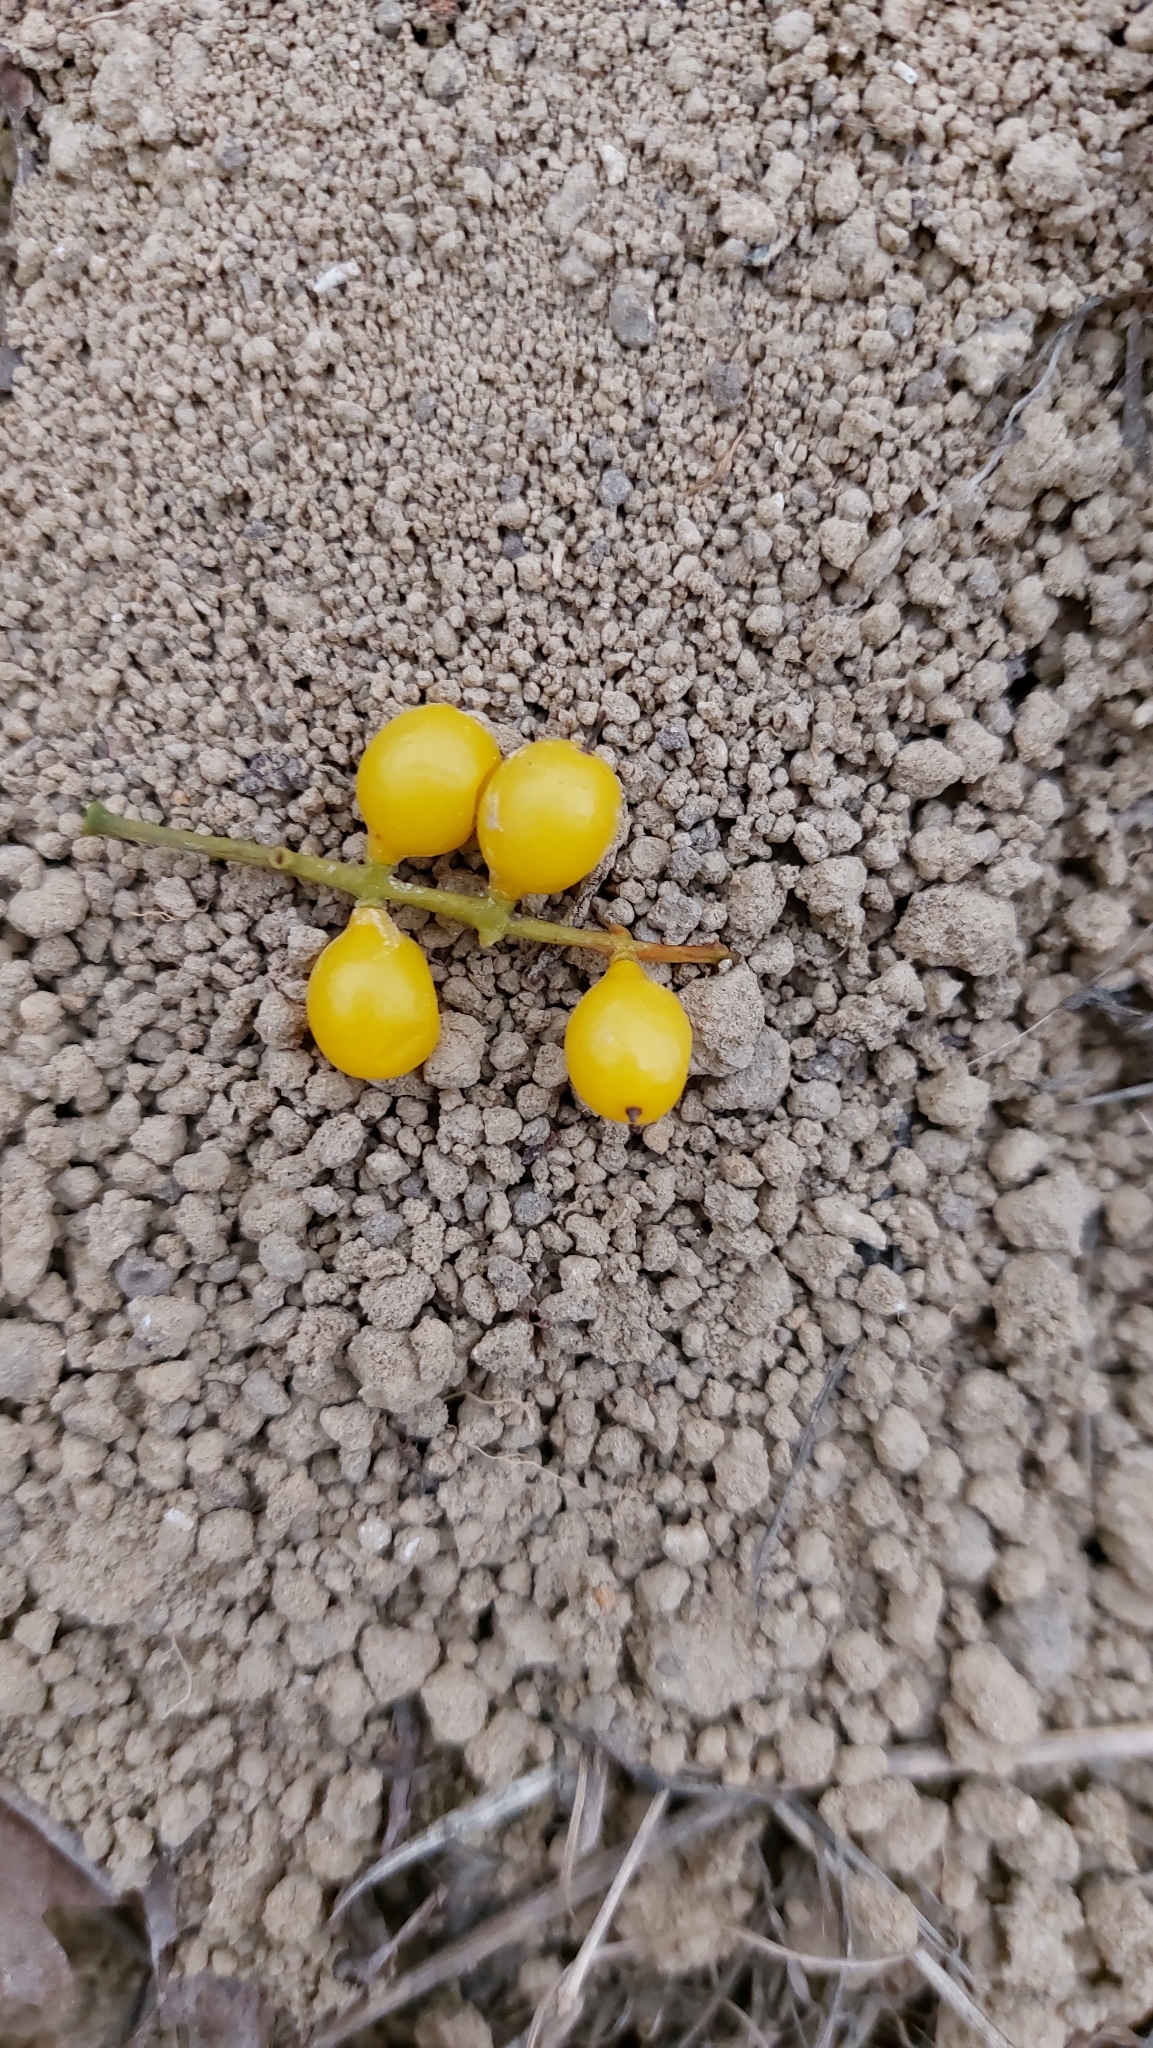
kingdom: Plantae
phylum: Tracheophyta
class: Magnoliopsida
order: Santalales
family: Loranthaceae
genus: Loranthus
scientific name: Loranthus europaeus
